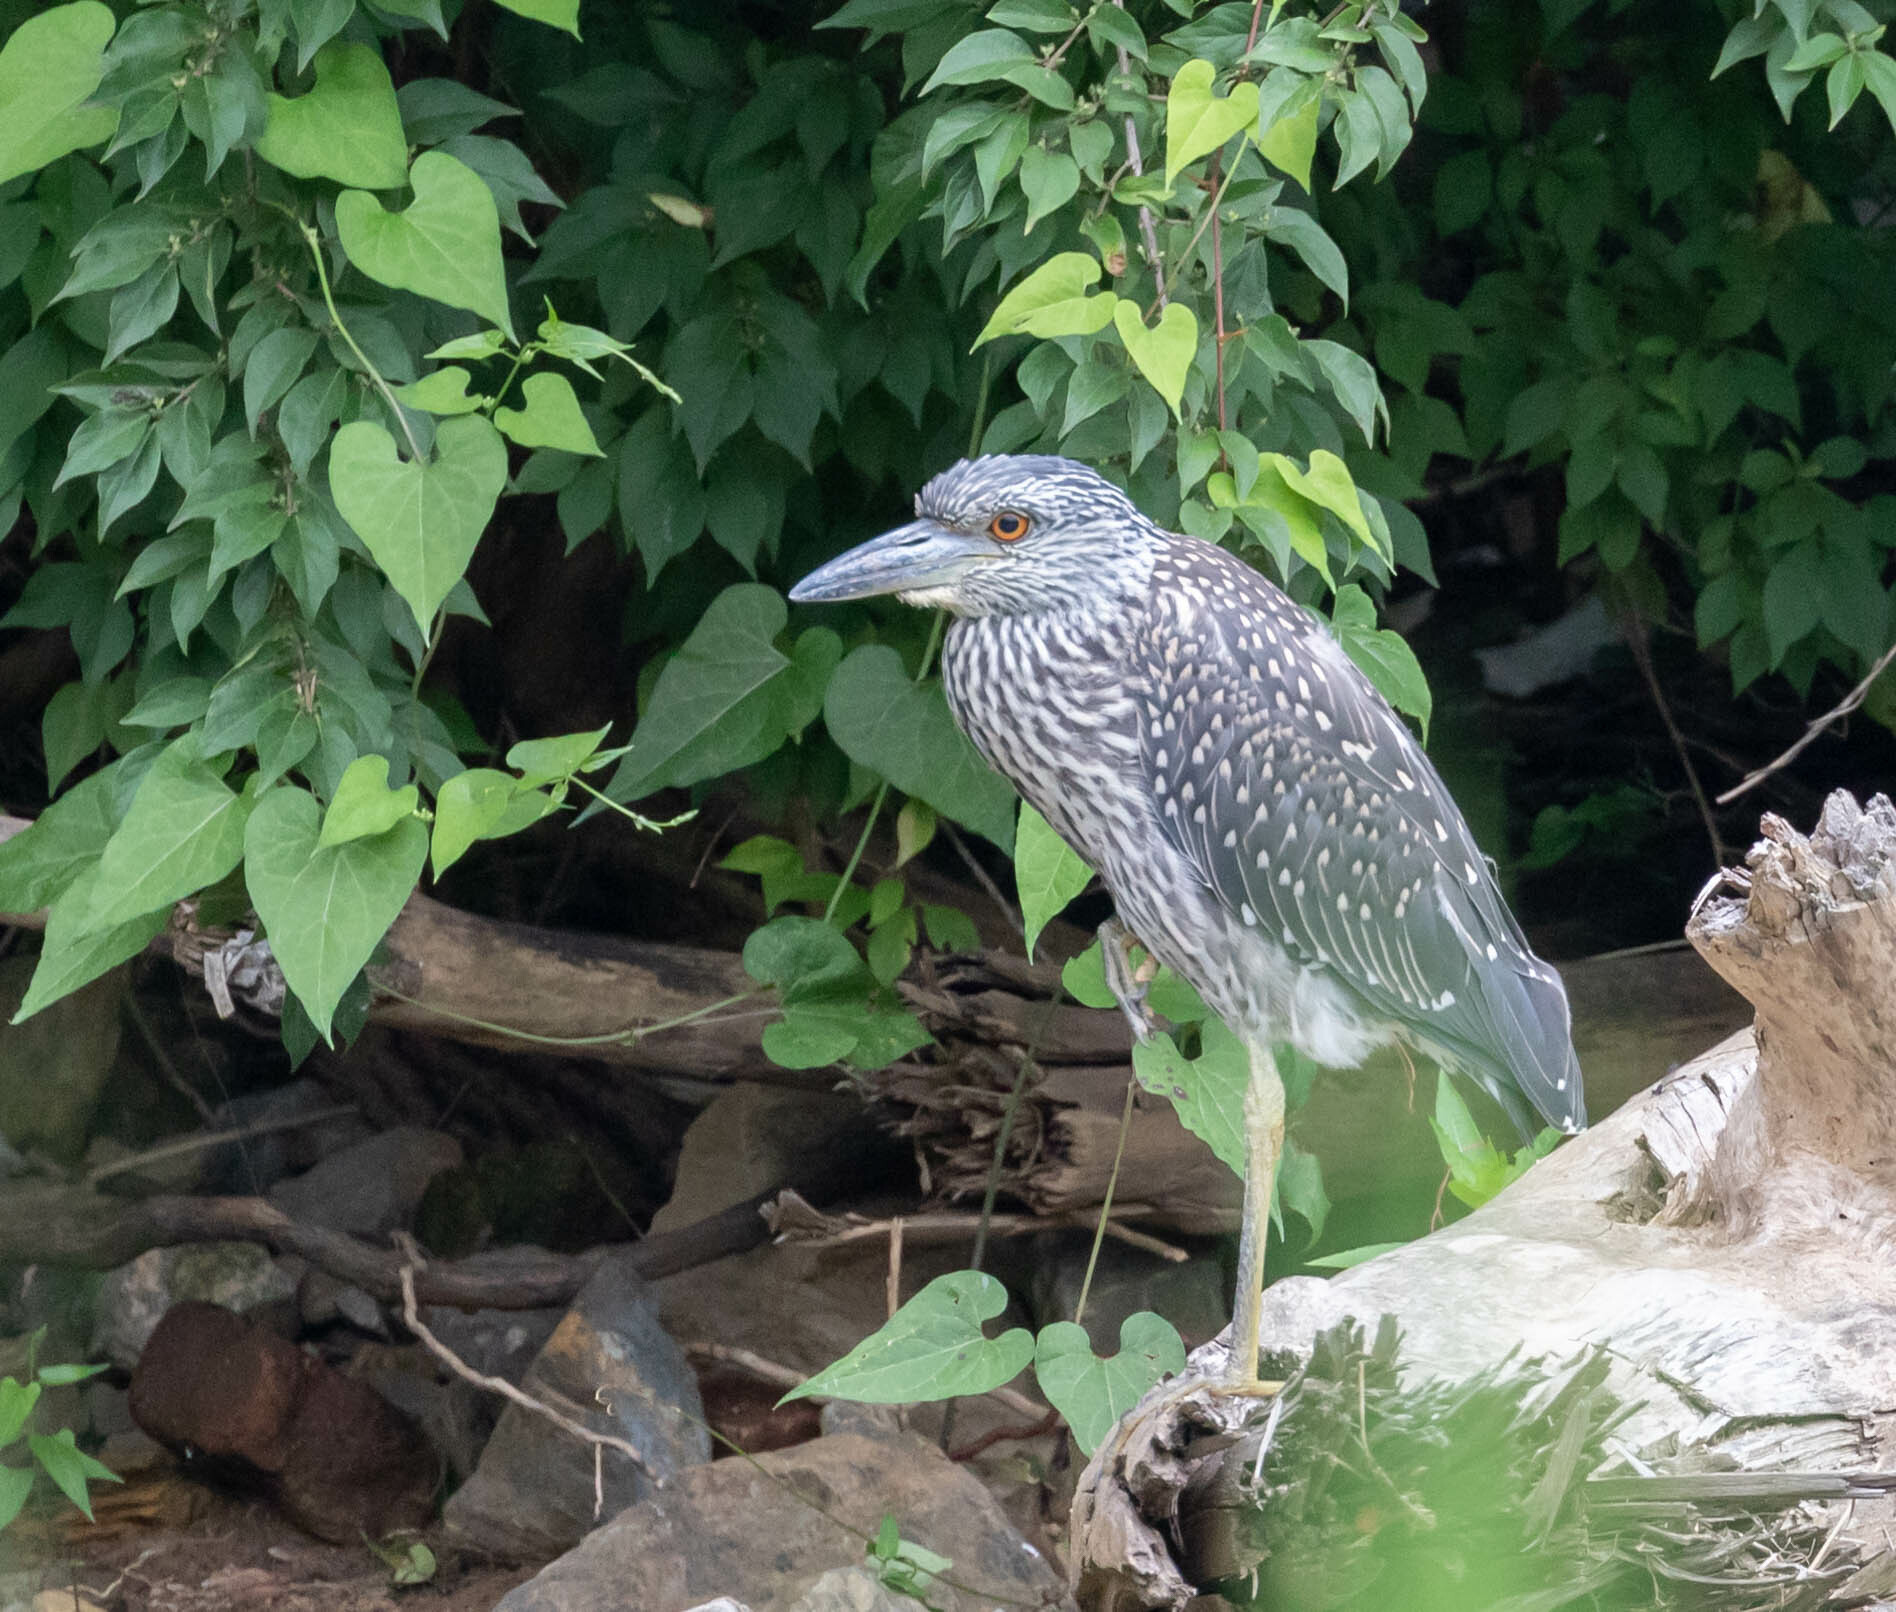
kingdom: Animalia
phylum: Chordata
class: Aves
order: Pelecaniformes
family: Ardeidae
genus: Nyctanassa
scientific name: Nyctanassa violacea
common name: Yellow-crowned night heron
